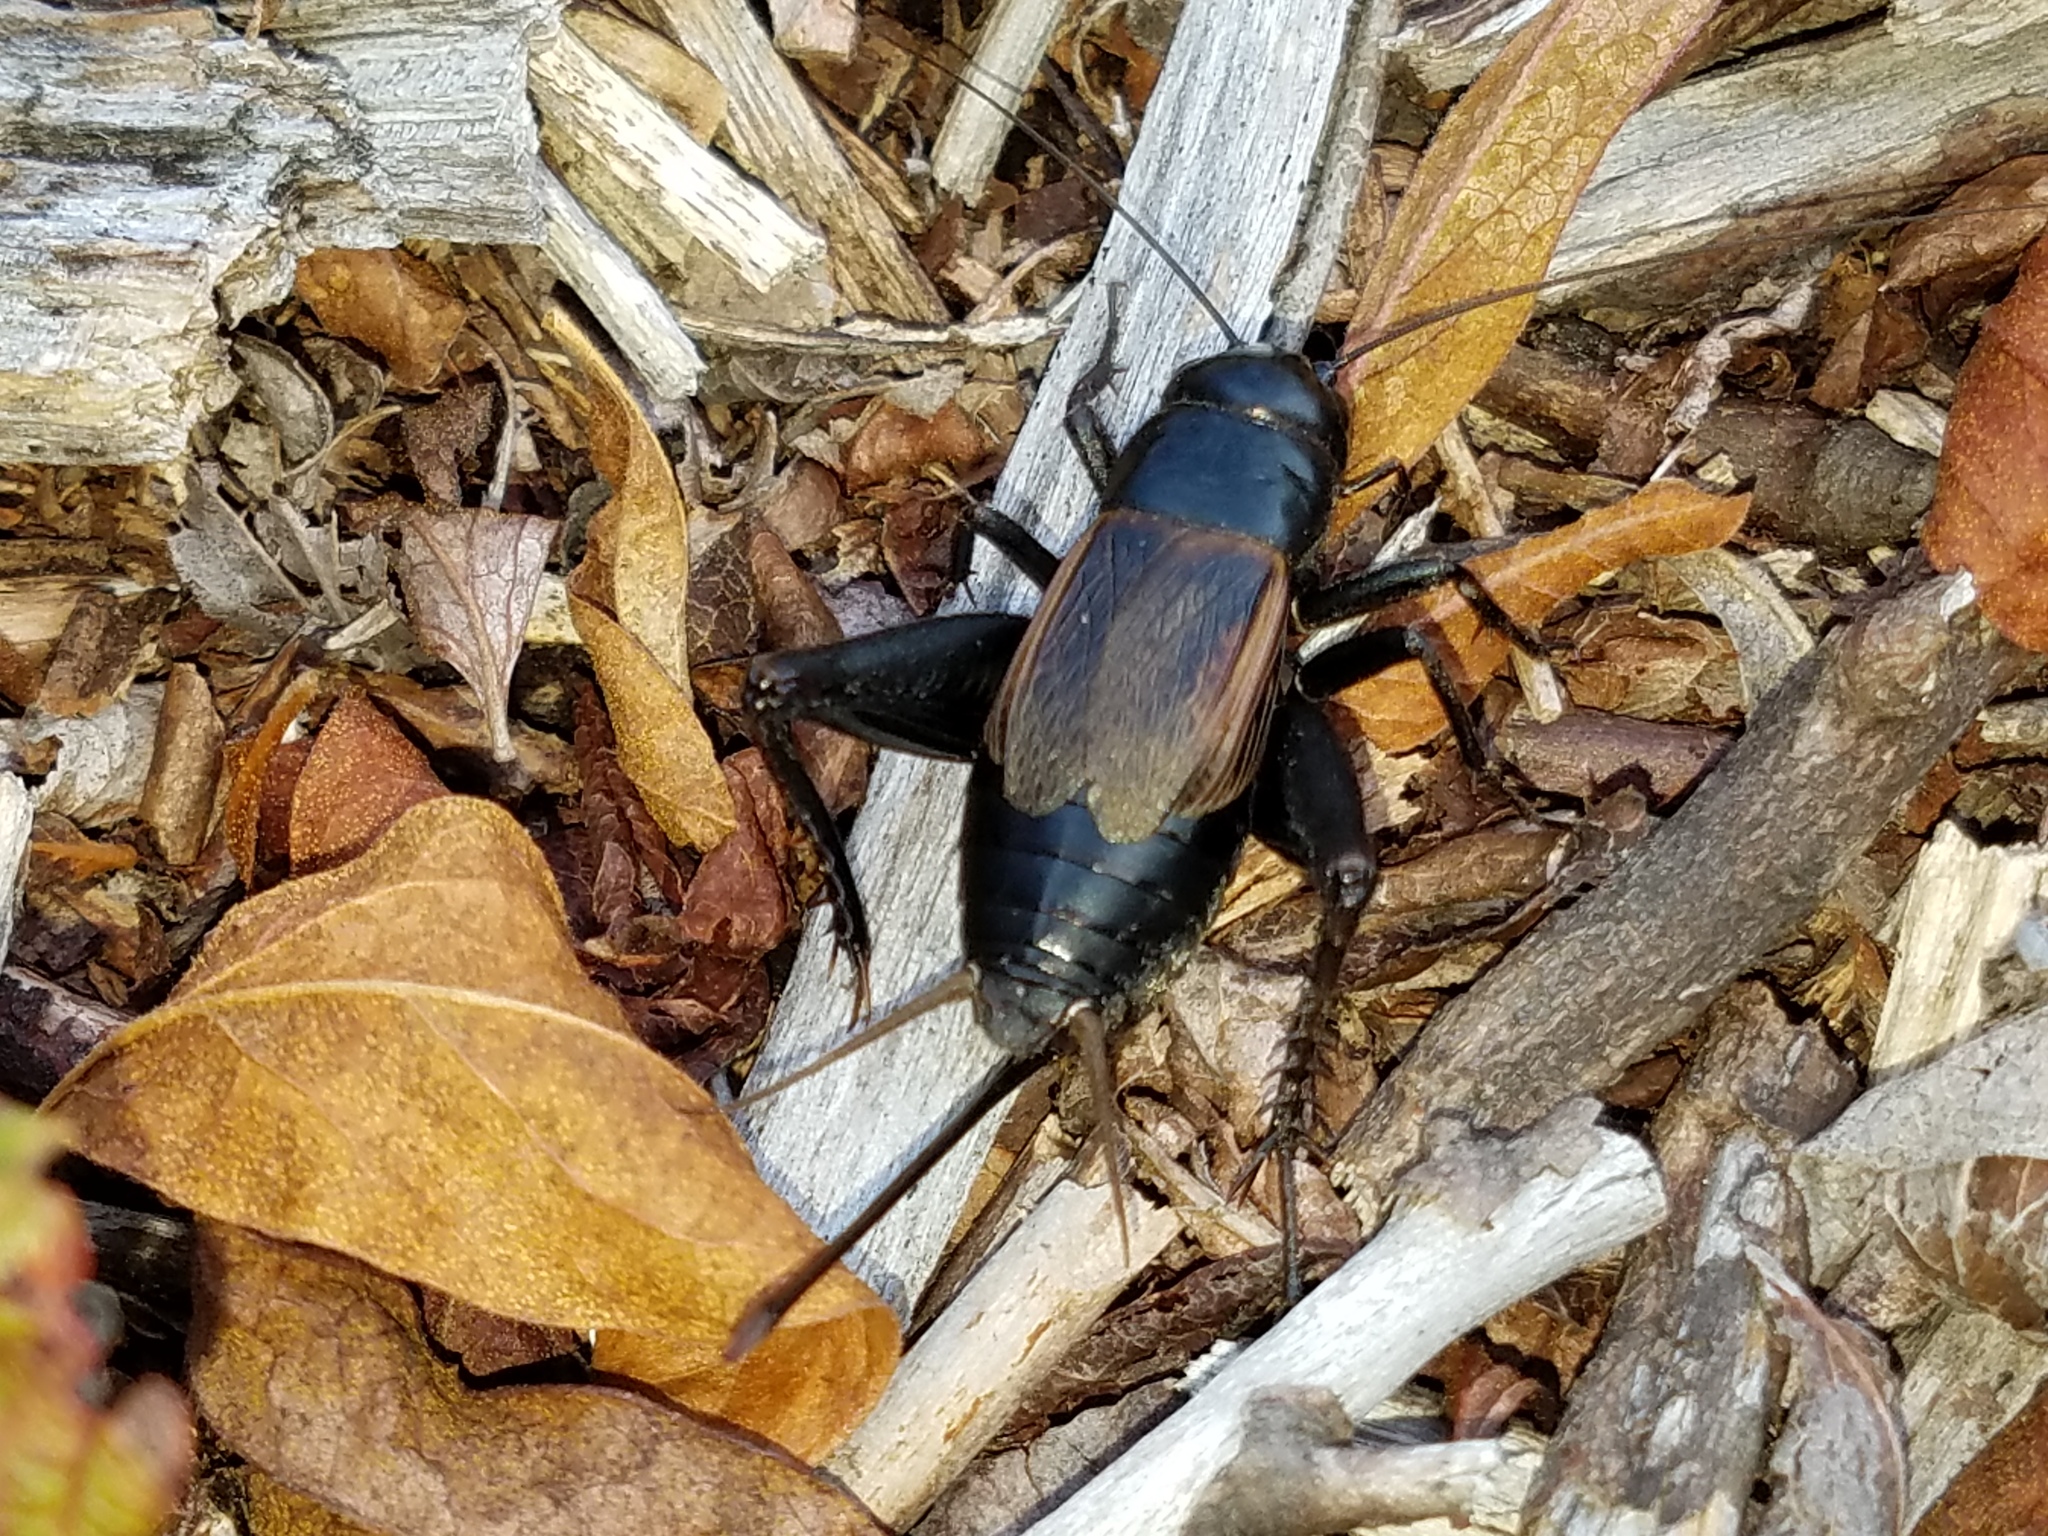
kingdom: Animalia
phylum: Arthropoda
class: Insecta
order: Orthoptera
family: Gryllidae
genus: Gryllus
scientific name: Gryllus pennsylvanicus
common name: Fall field cricket
